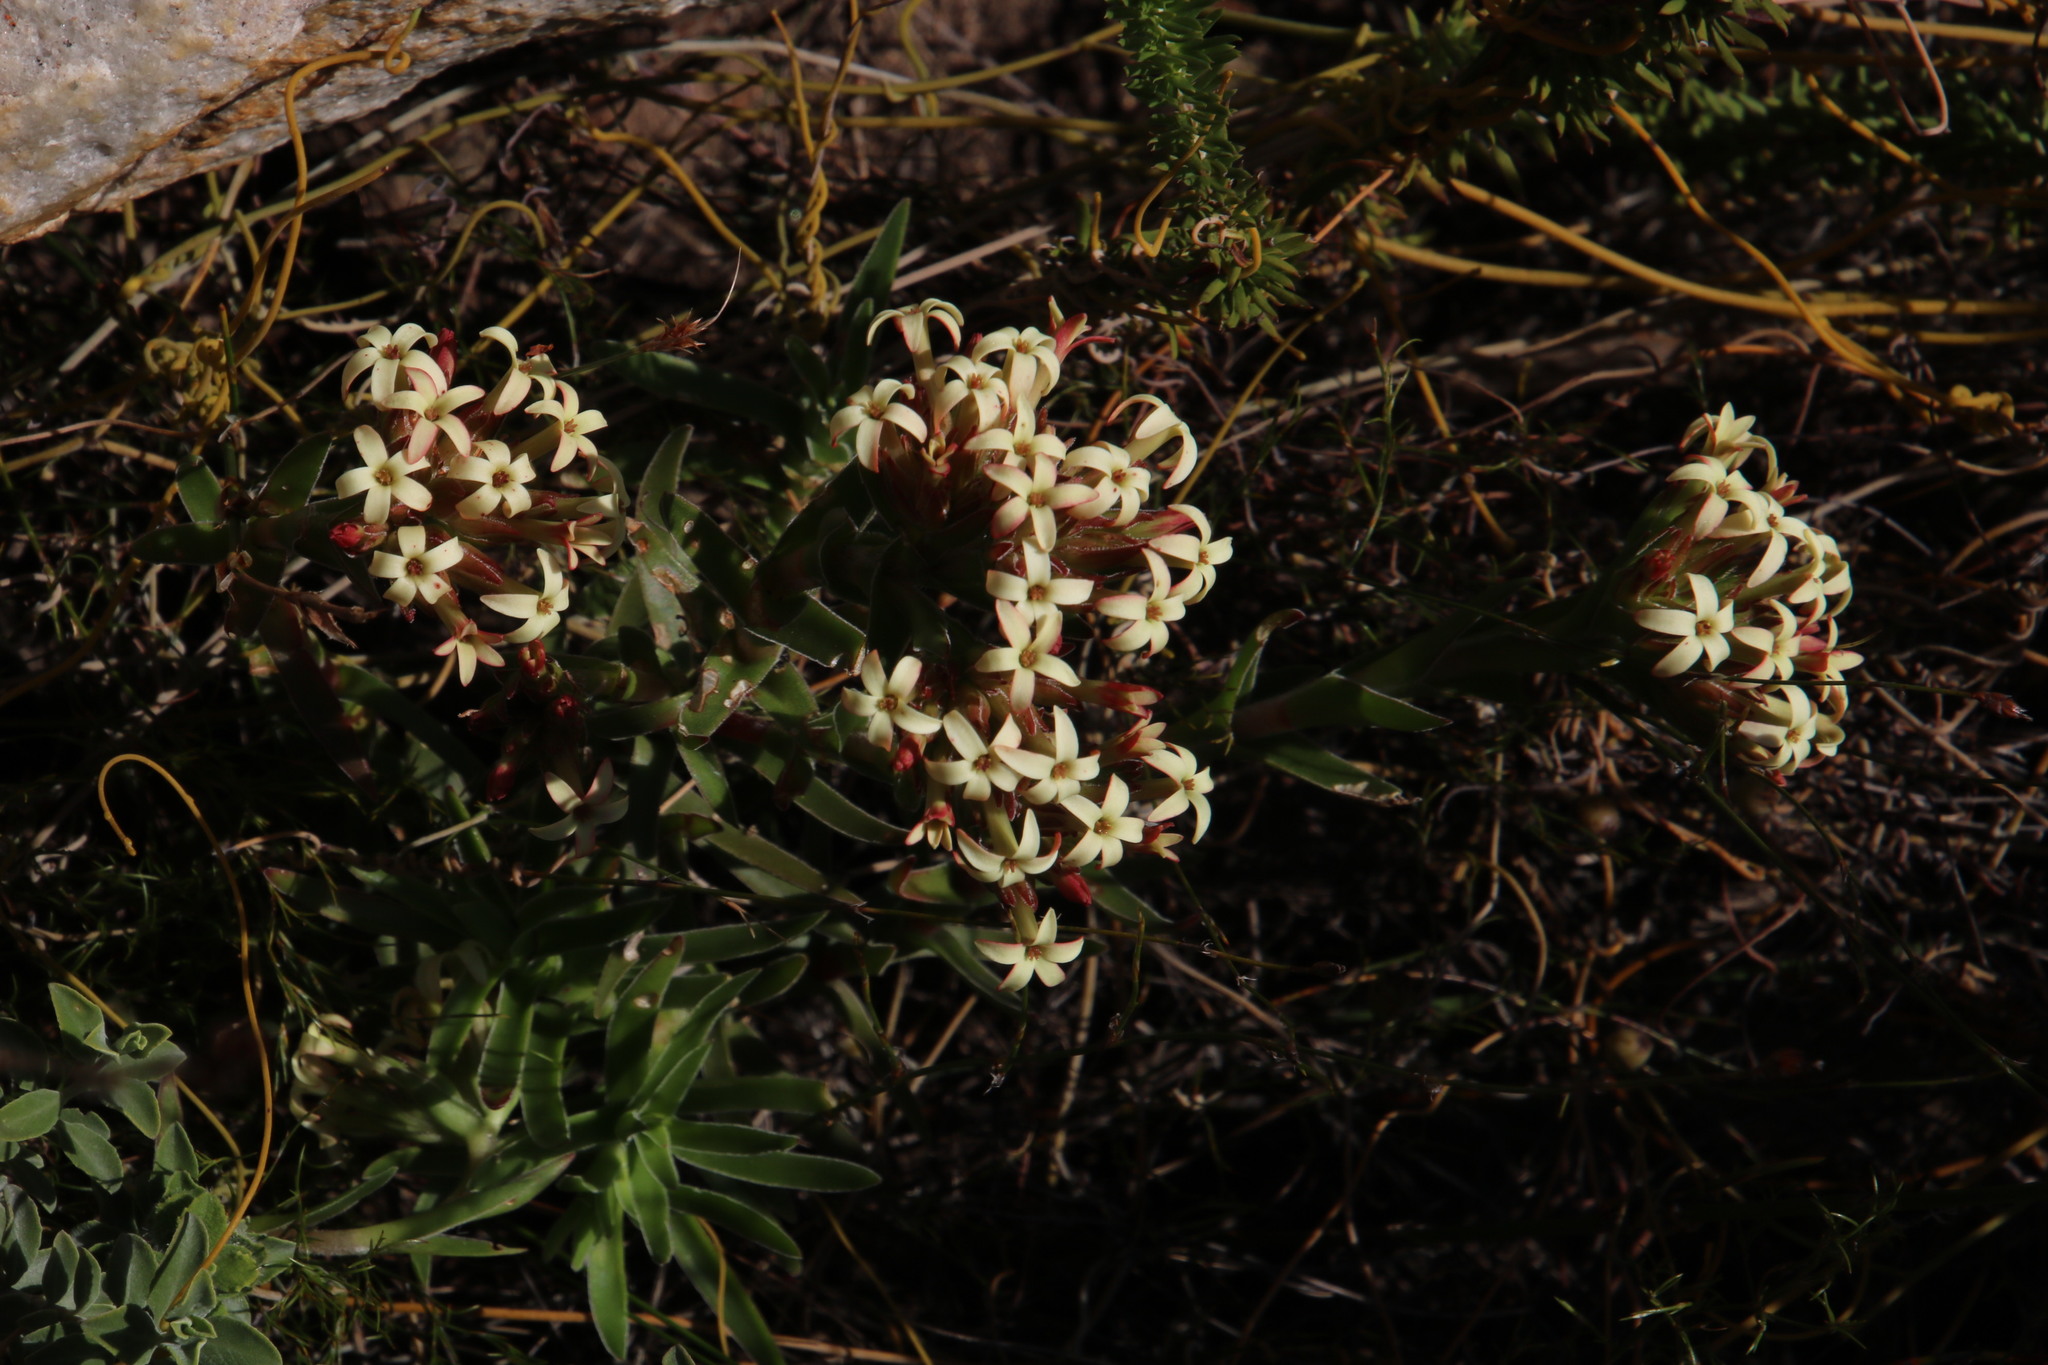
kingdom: Plantae
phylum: Tracheophyta
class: Magnoliopsida
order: Saxifragales
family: Crassulaceae
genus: Crassula
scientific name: Crassula fascicularis
